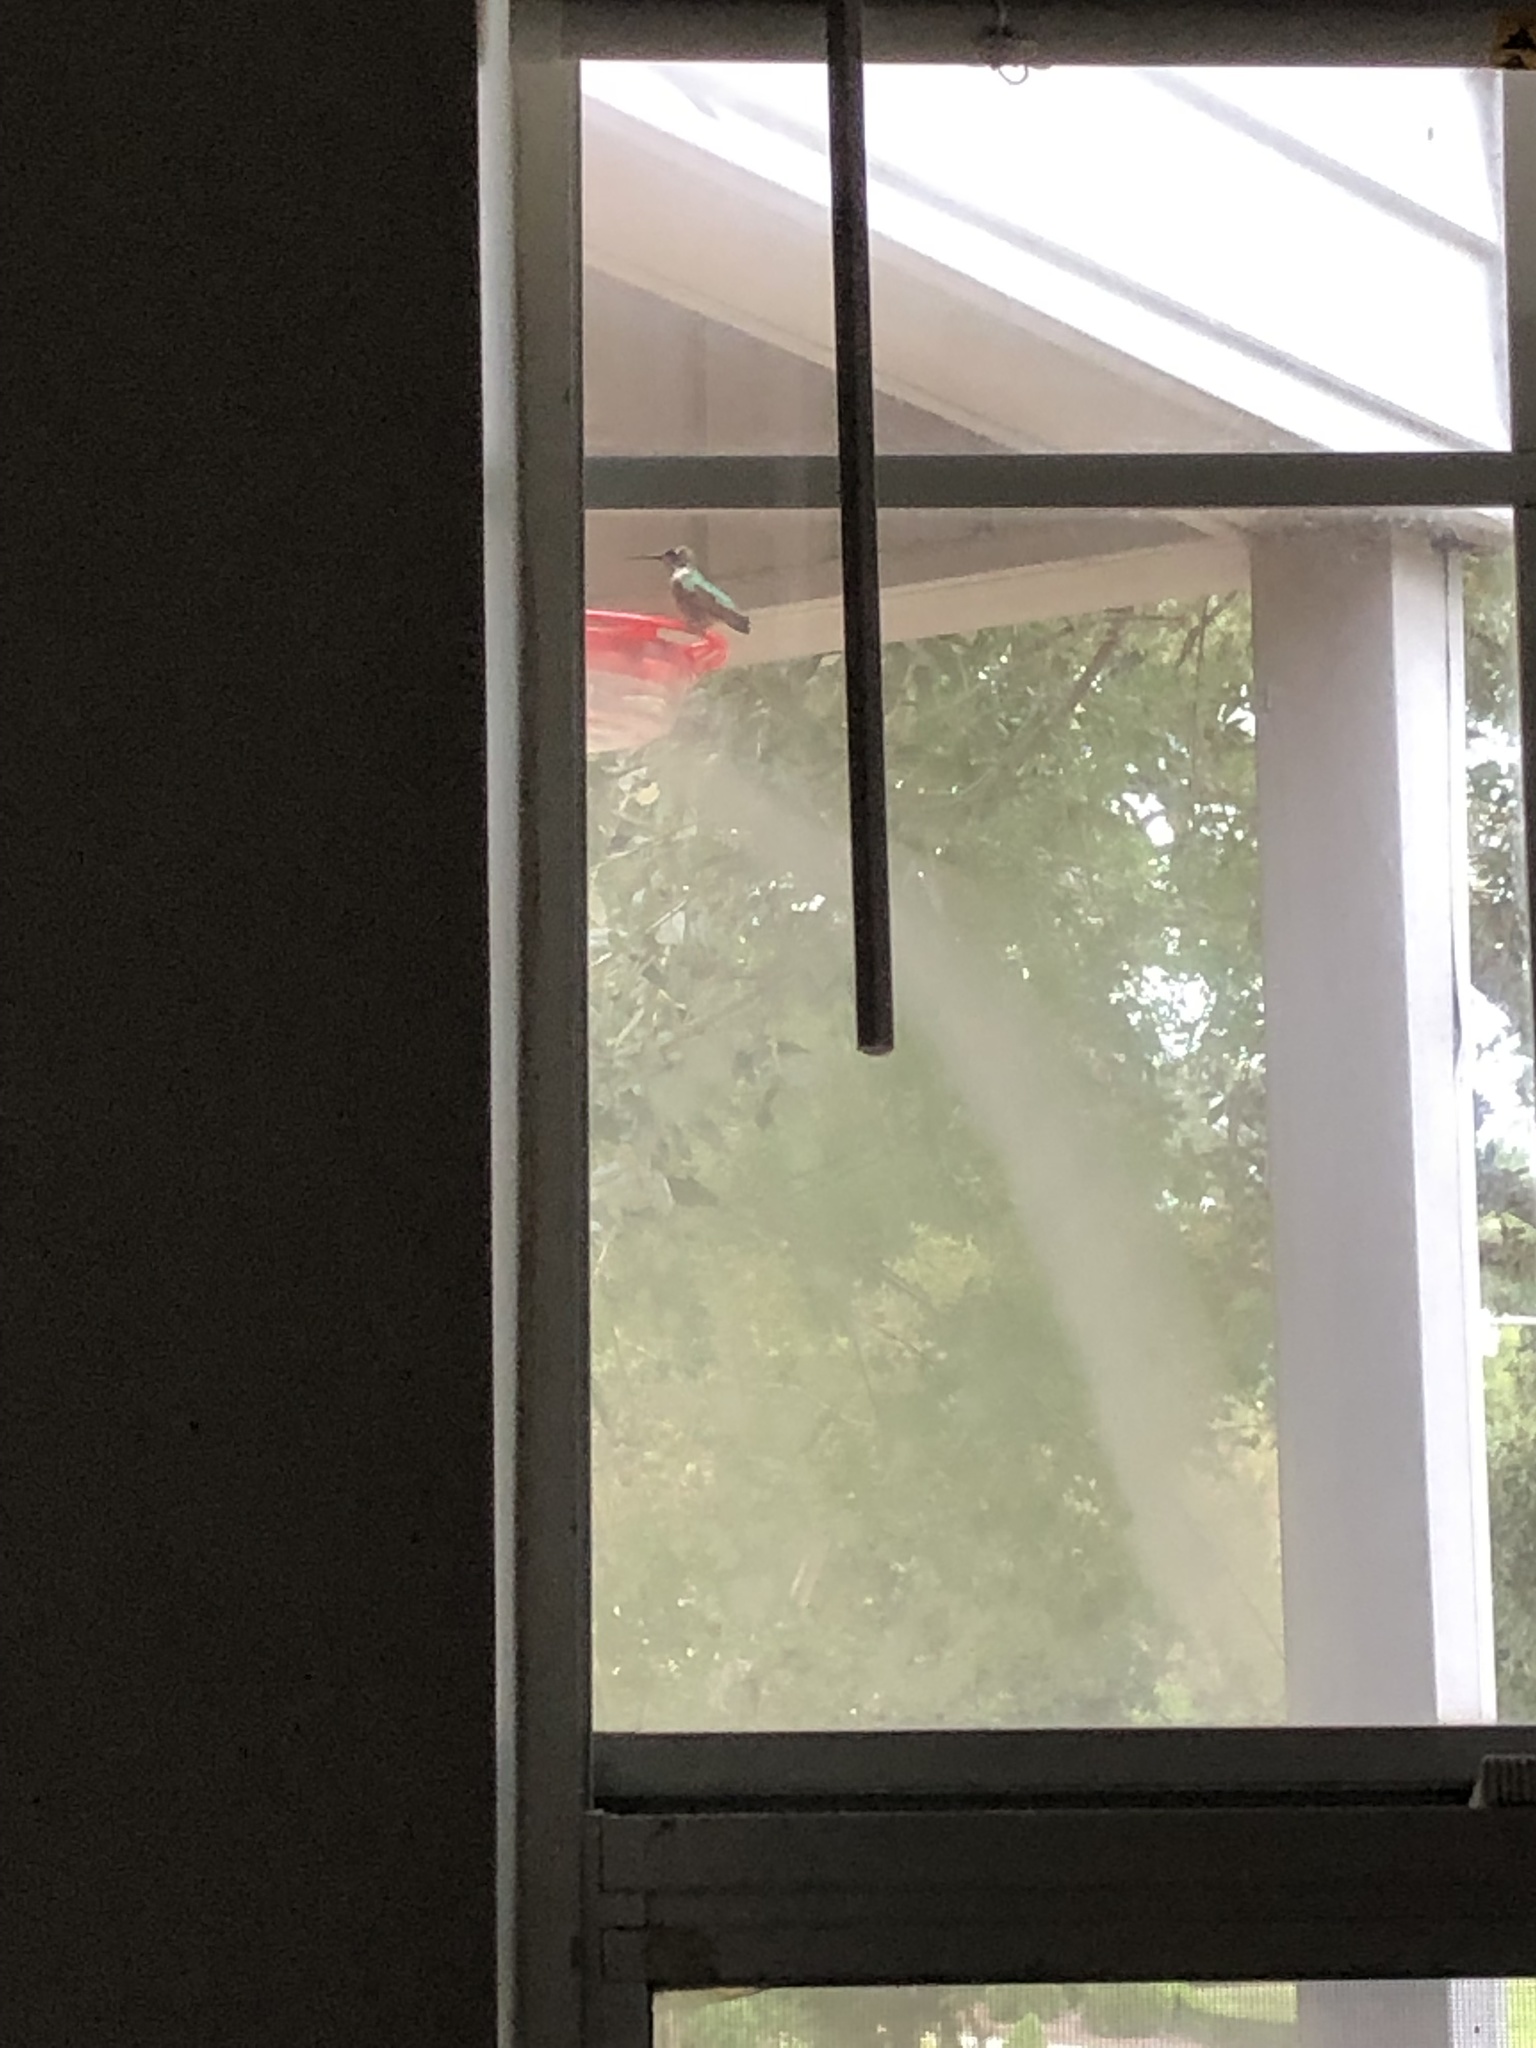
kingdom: Animalia
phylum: Chordata
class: Aves
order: Apodiformes
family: Trochilidae
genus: Archilochus
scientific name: Archilochus colubris
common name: Ruby-throated hummingbird
